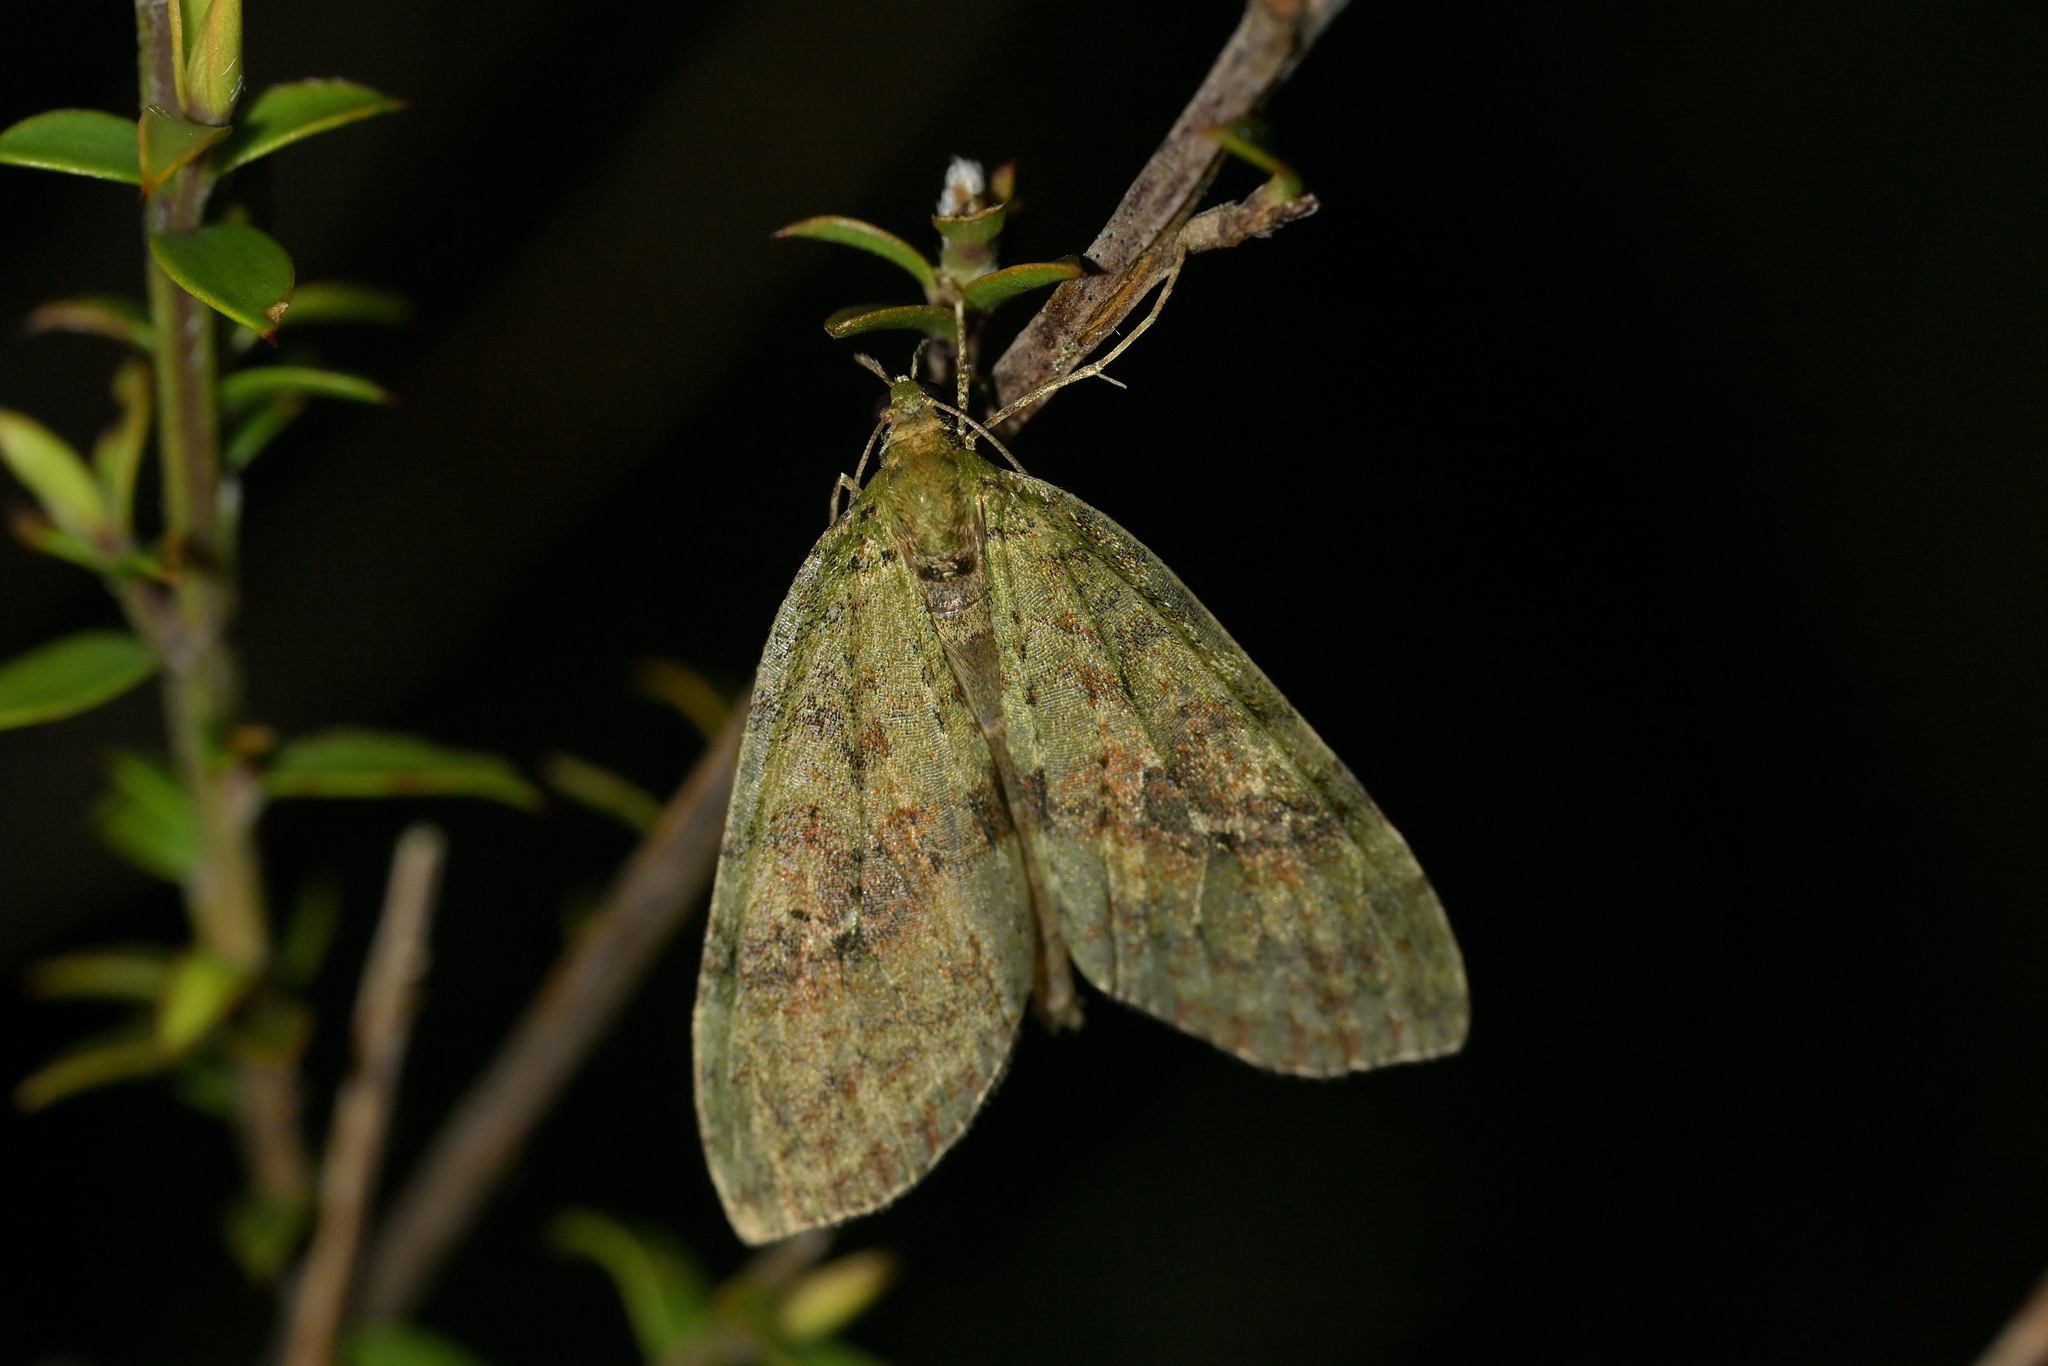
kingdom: Animalia
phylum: Arthropoda
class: Insecta
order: Lepidoptera
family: Geometridae
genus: Tatosoma
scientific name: Tatosoma transitaria
